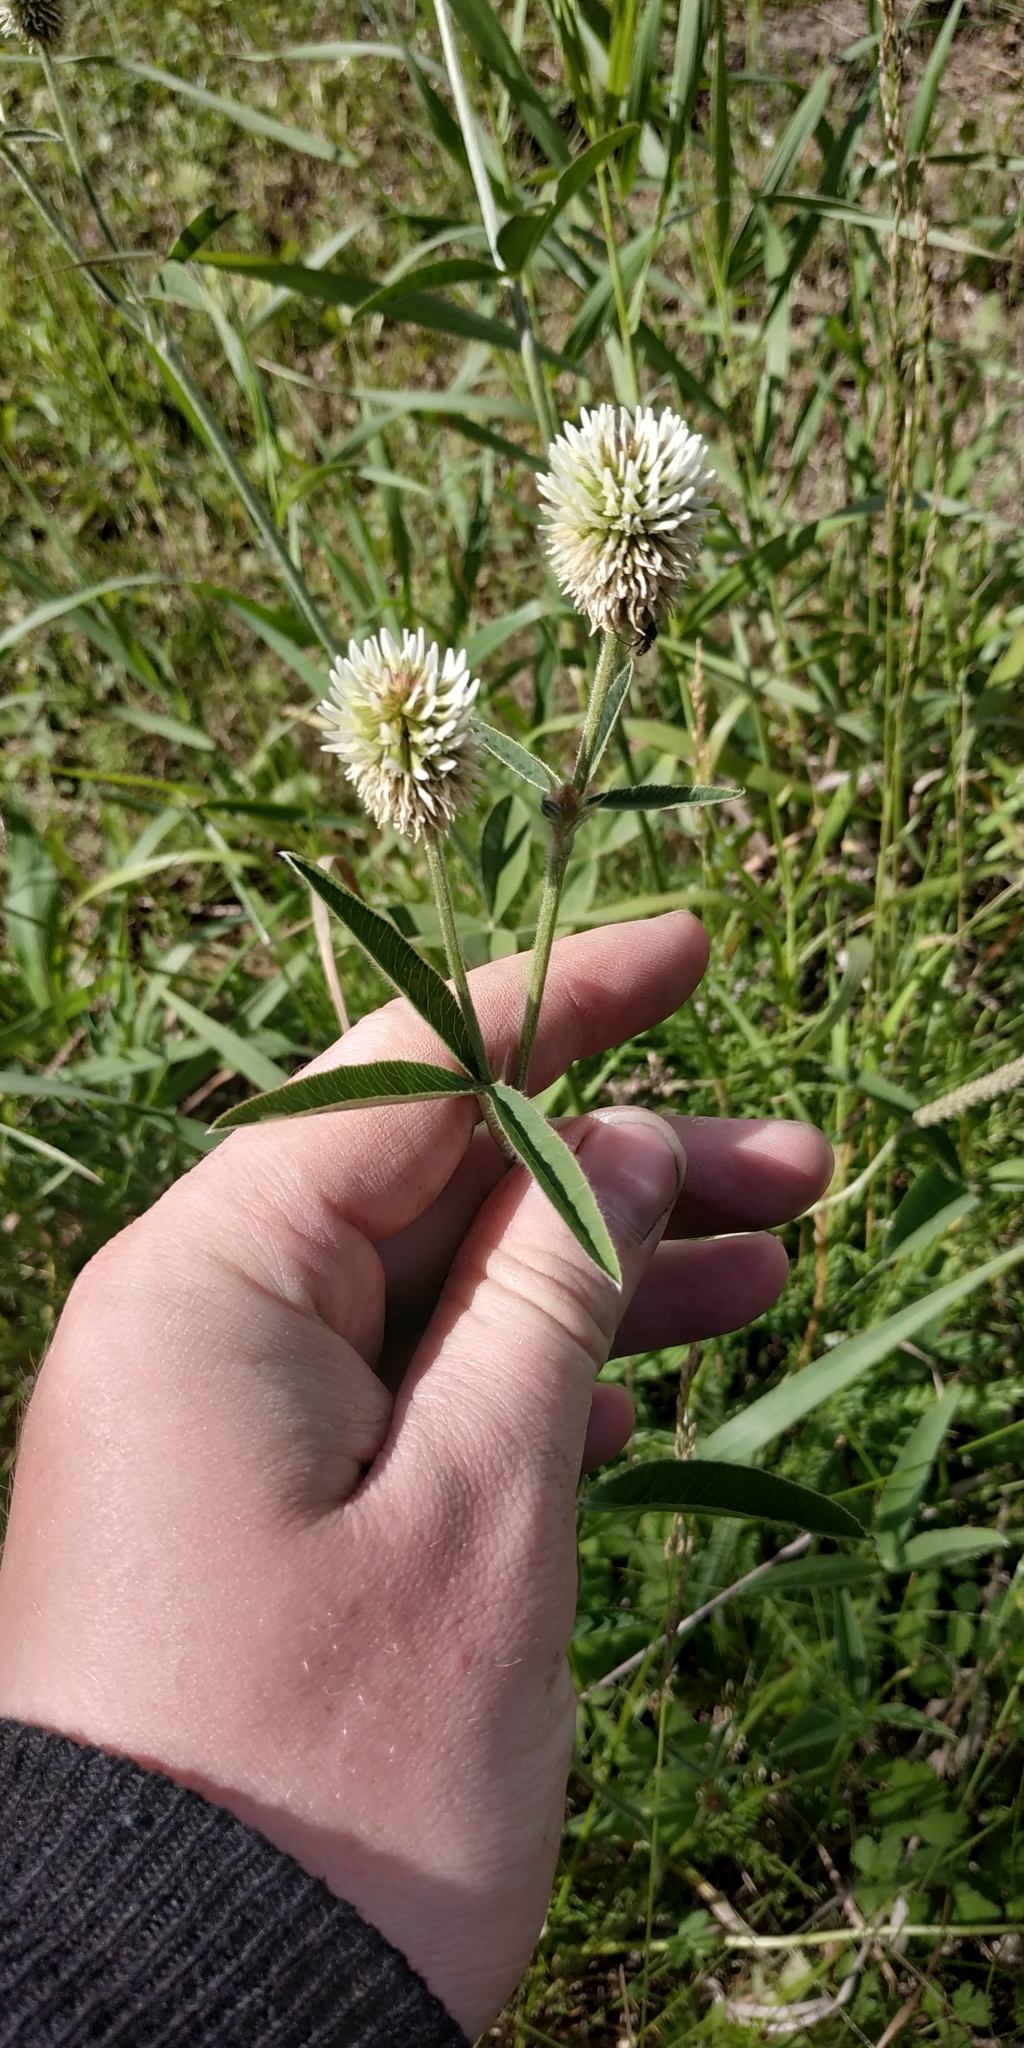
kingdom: Plantae
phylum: Tracheophyta
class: Magnoliopsida
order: Fabales
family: Fabaceae
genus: Trifolium
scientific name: Trifolium montanum
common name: Mountain clover
